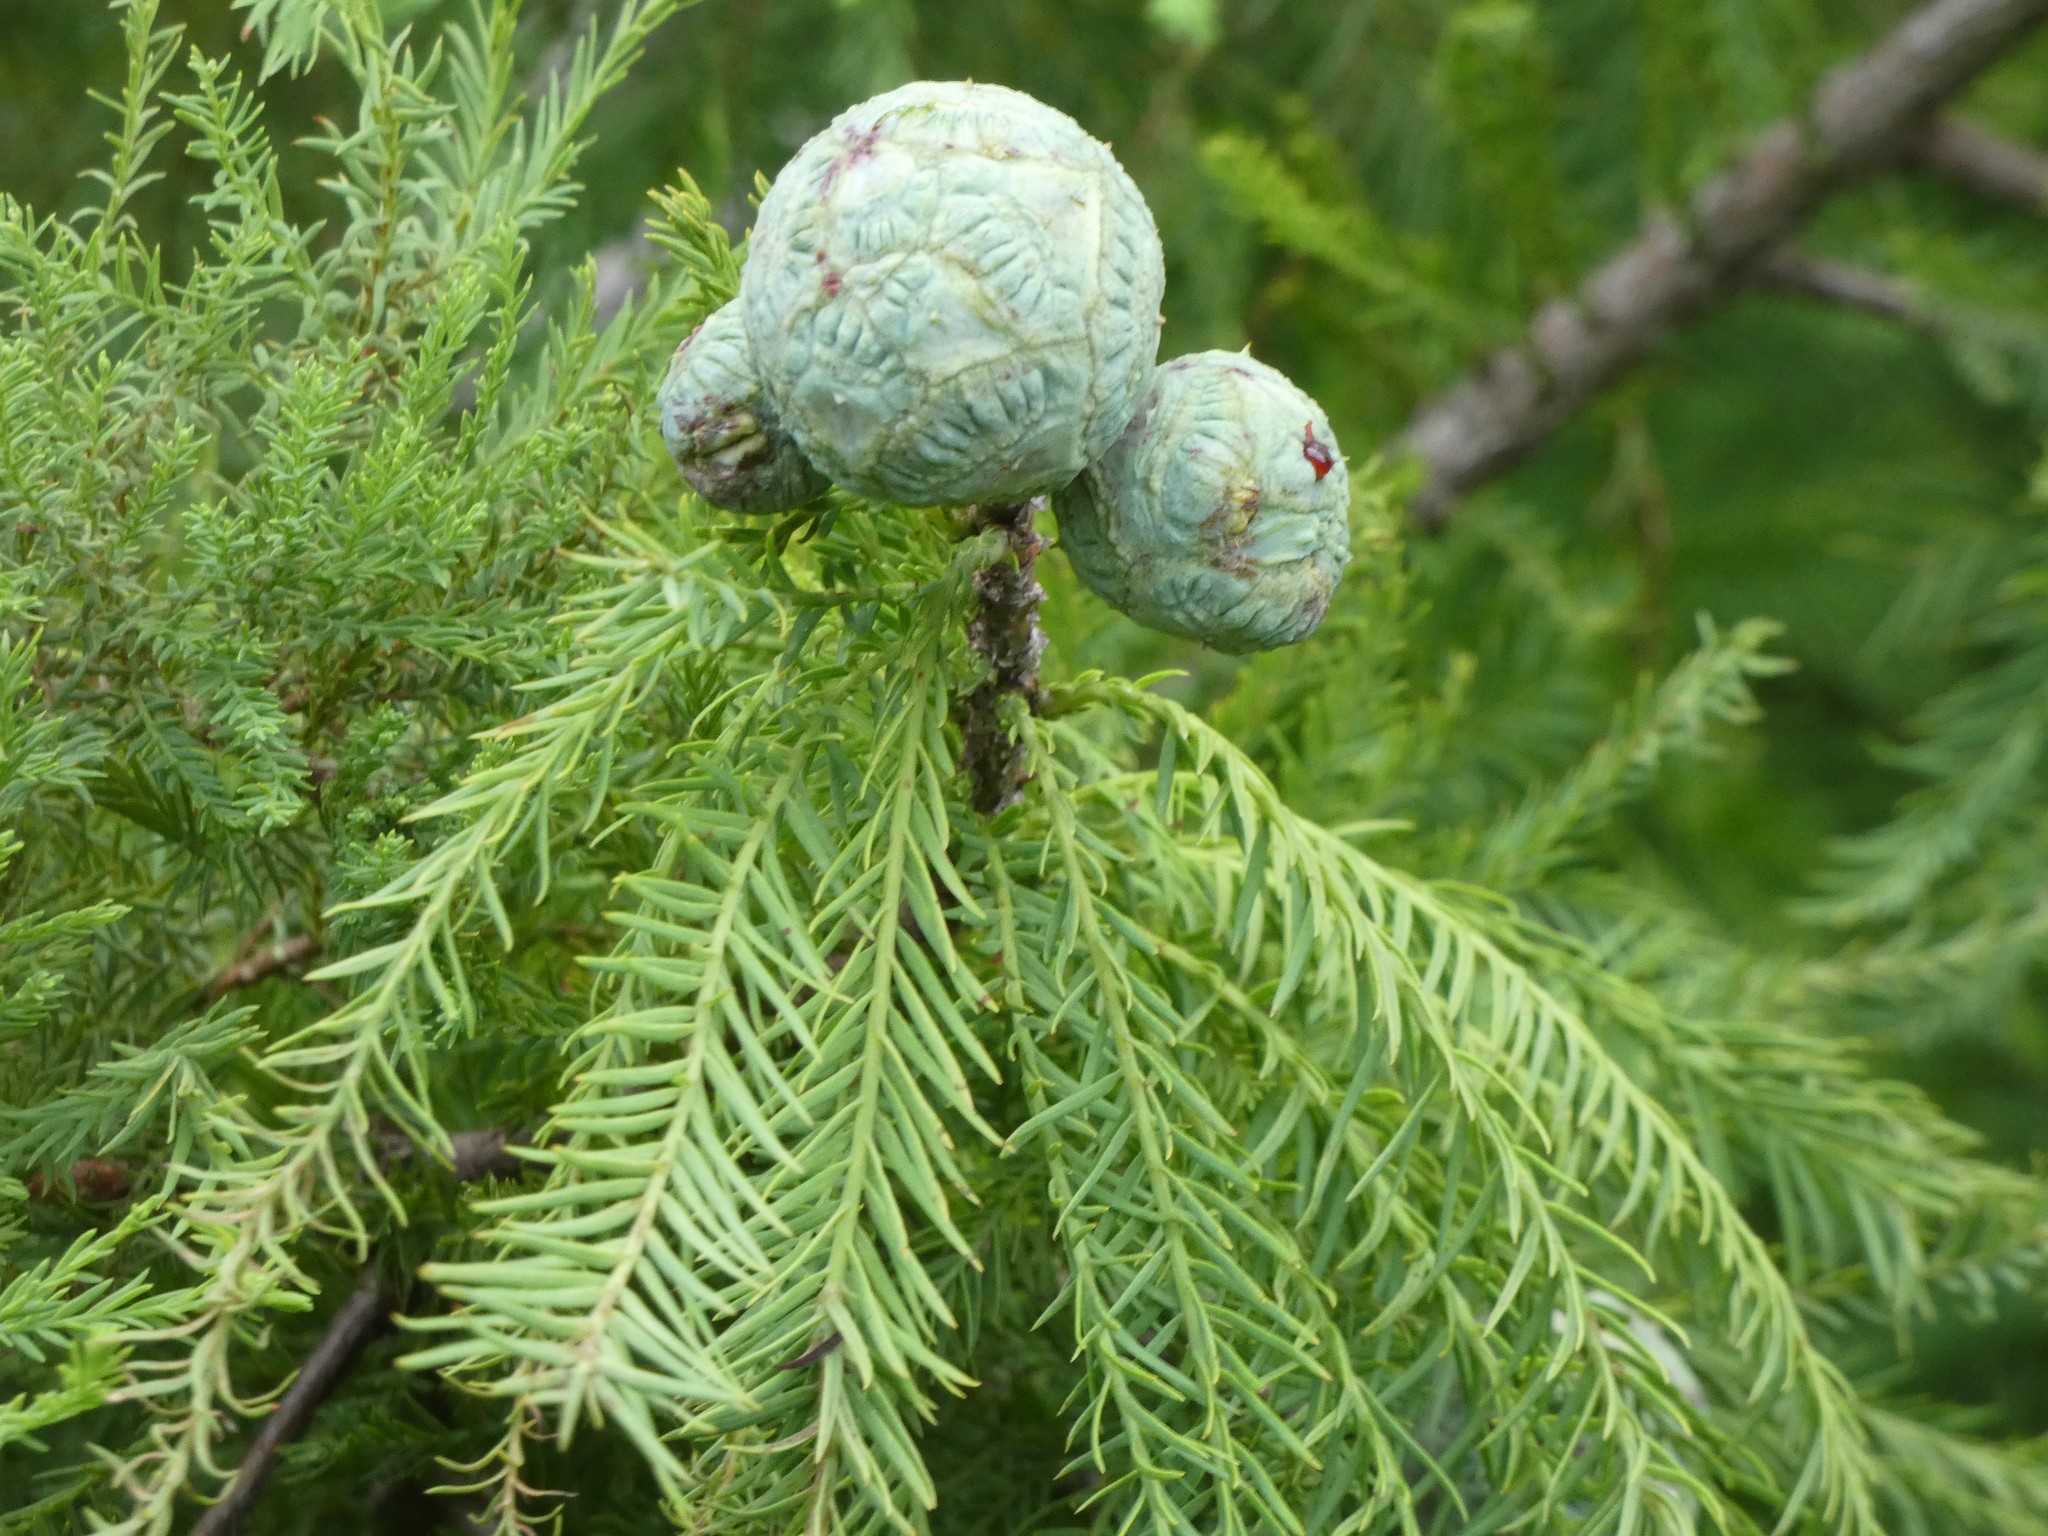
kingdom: Plantae
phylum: Tracheophyta
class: Pinopsida
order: Pinales
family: Cupressaceae
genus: Taxodium
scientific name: Taxodium distichum
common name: Bald cypress
